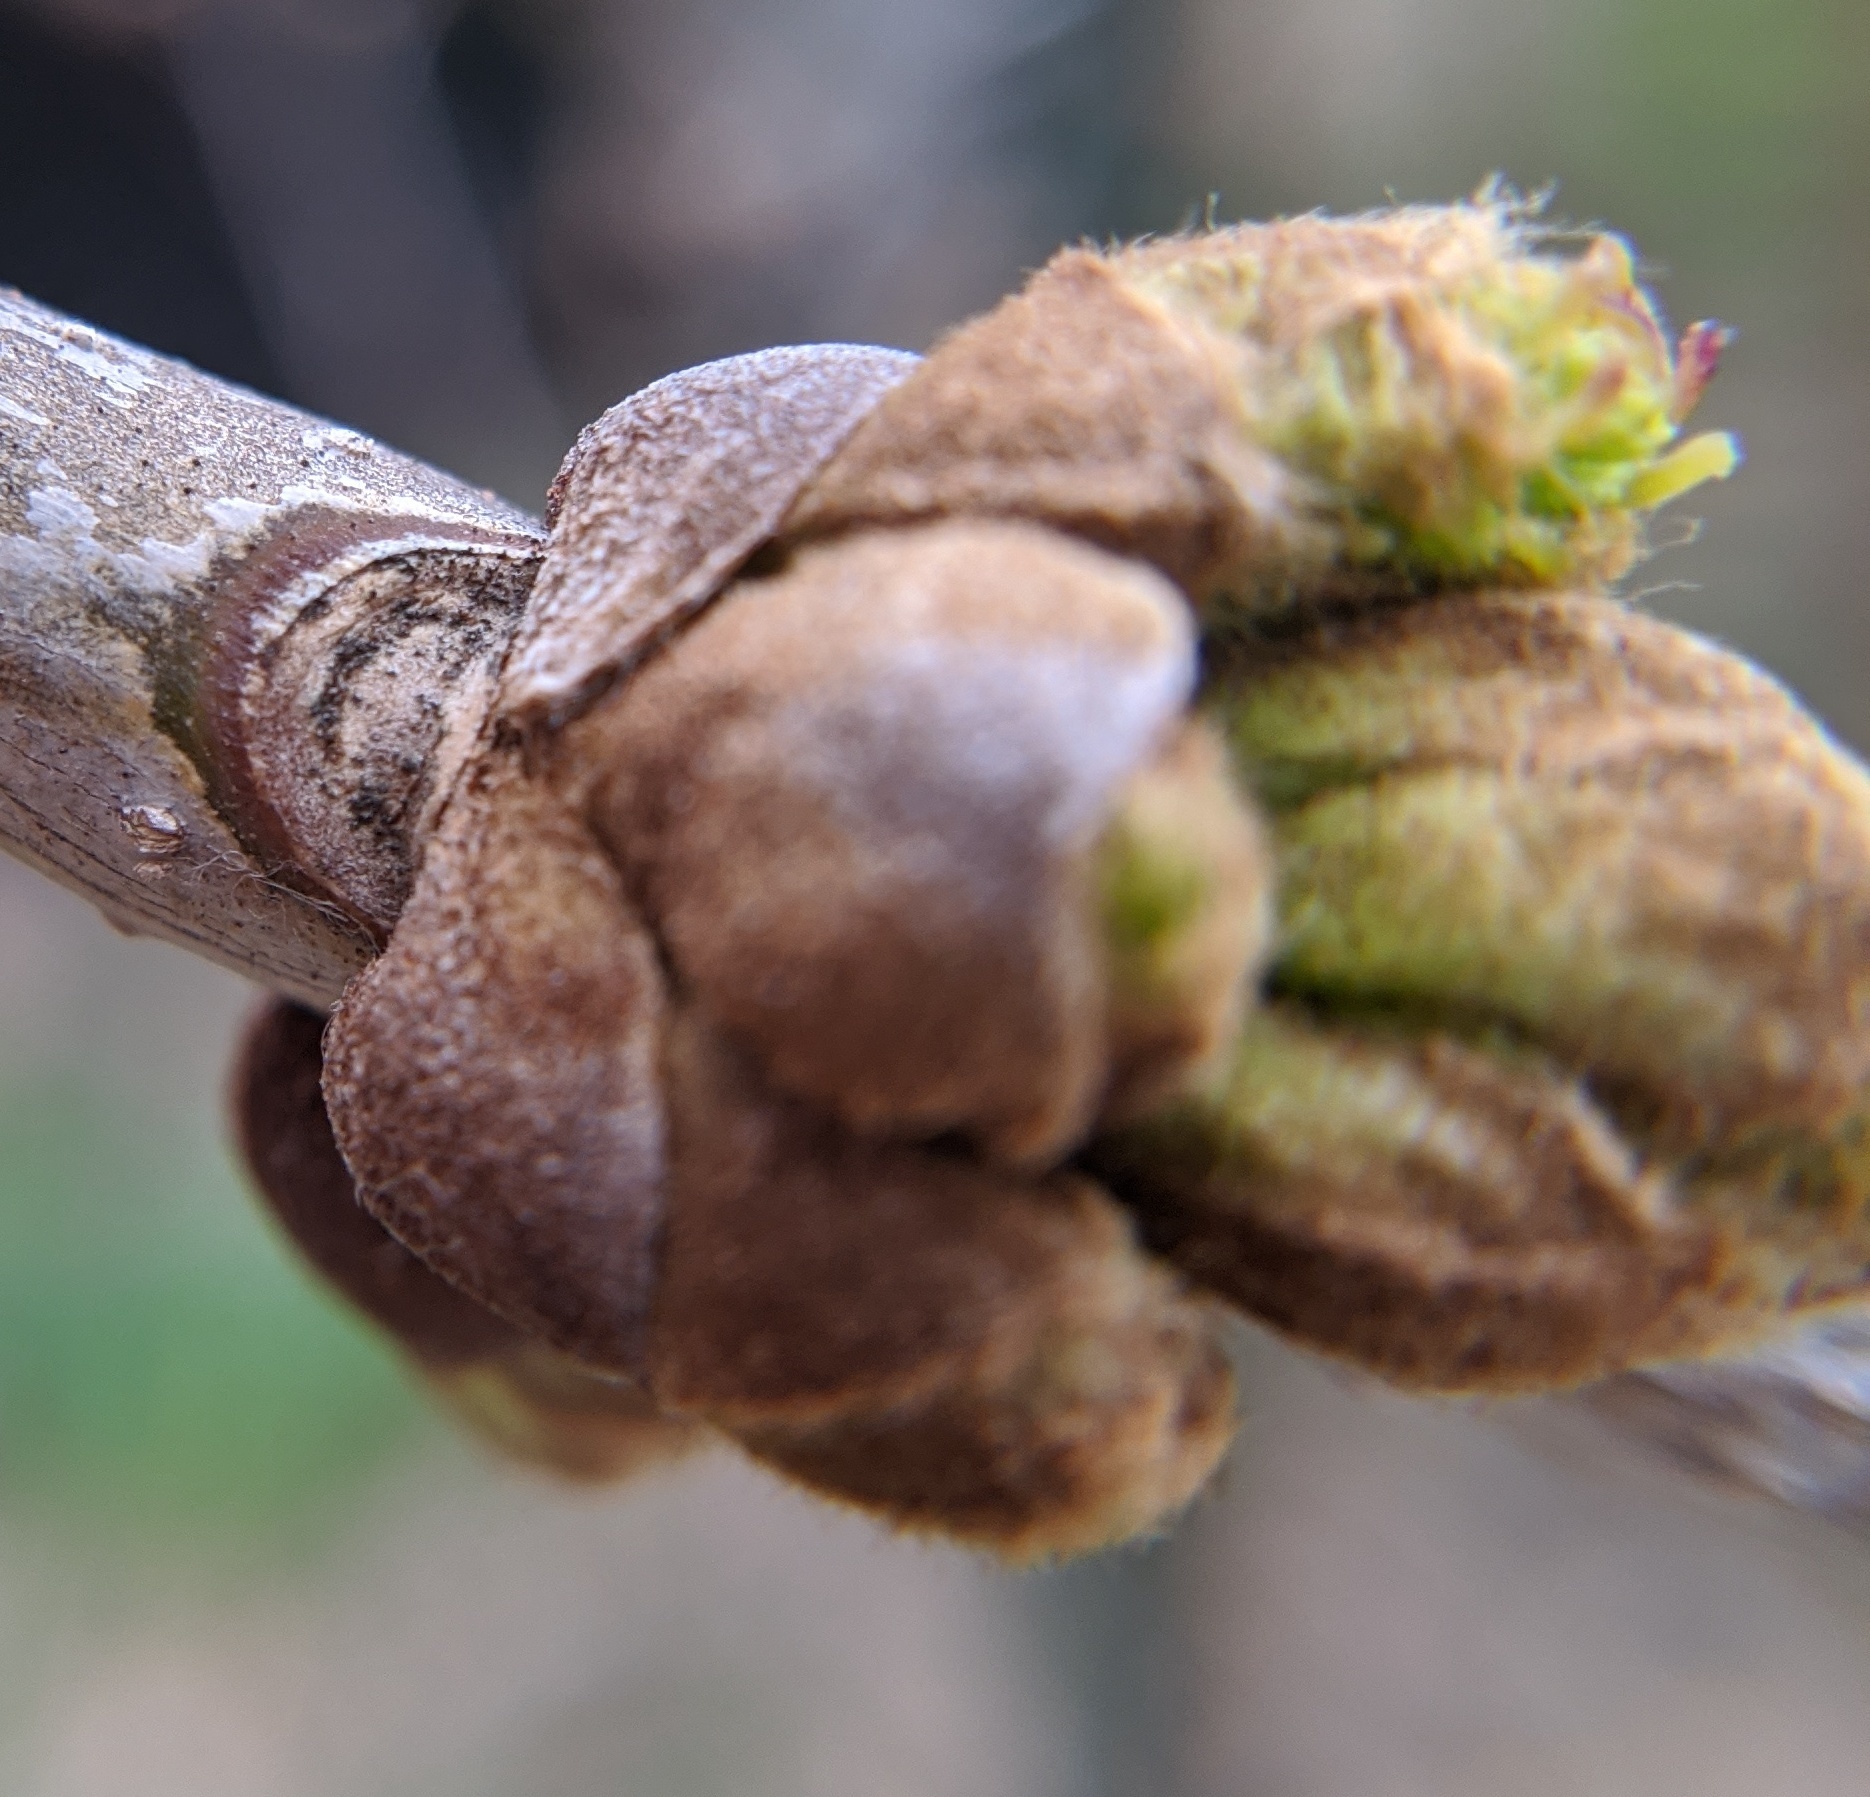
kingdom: Plantae
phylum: Tracheophyta
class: Magnoliopsida
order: Lamiales
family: Oleaceae
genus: Fraxinus
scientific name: Fraxinus pennsylvanica
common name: Green ash
